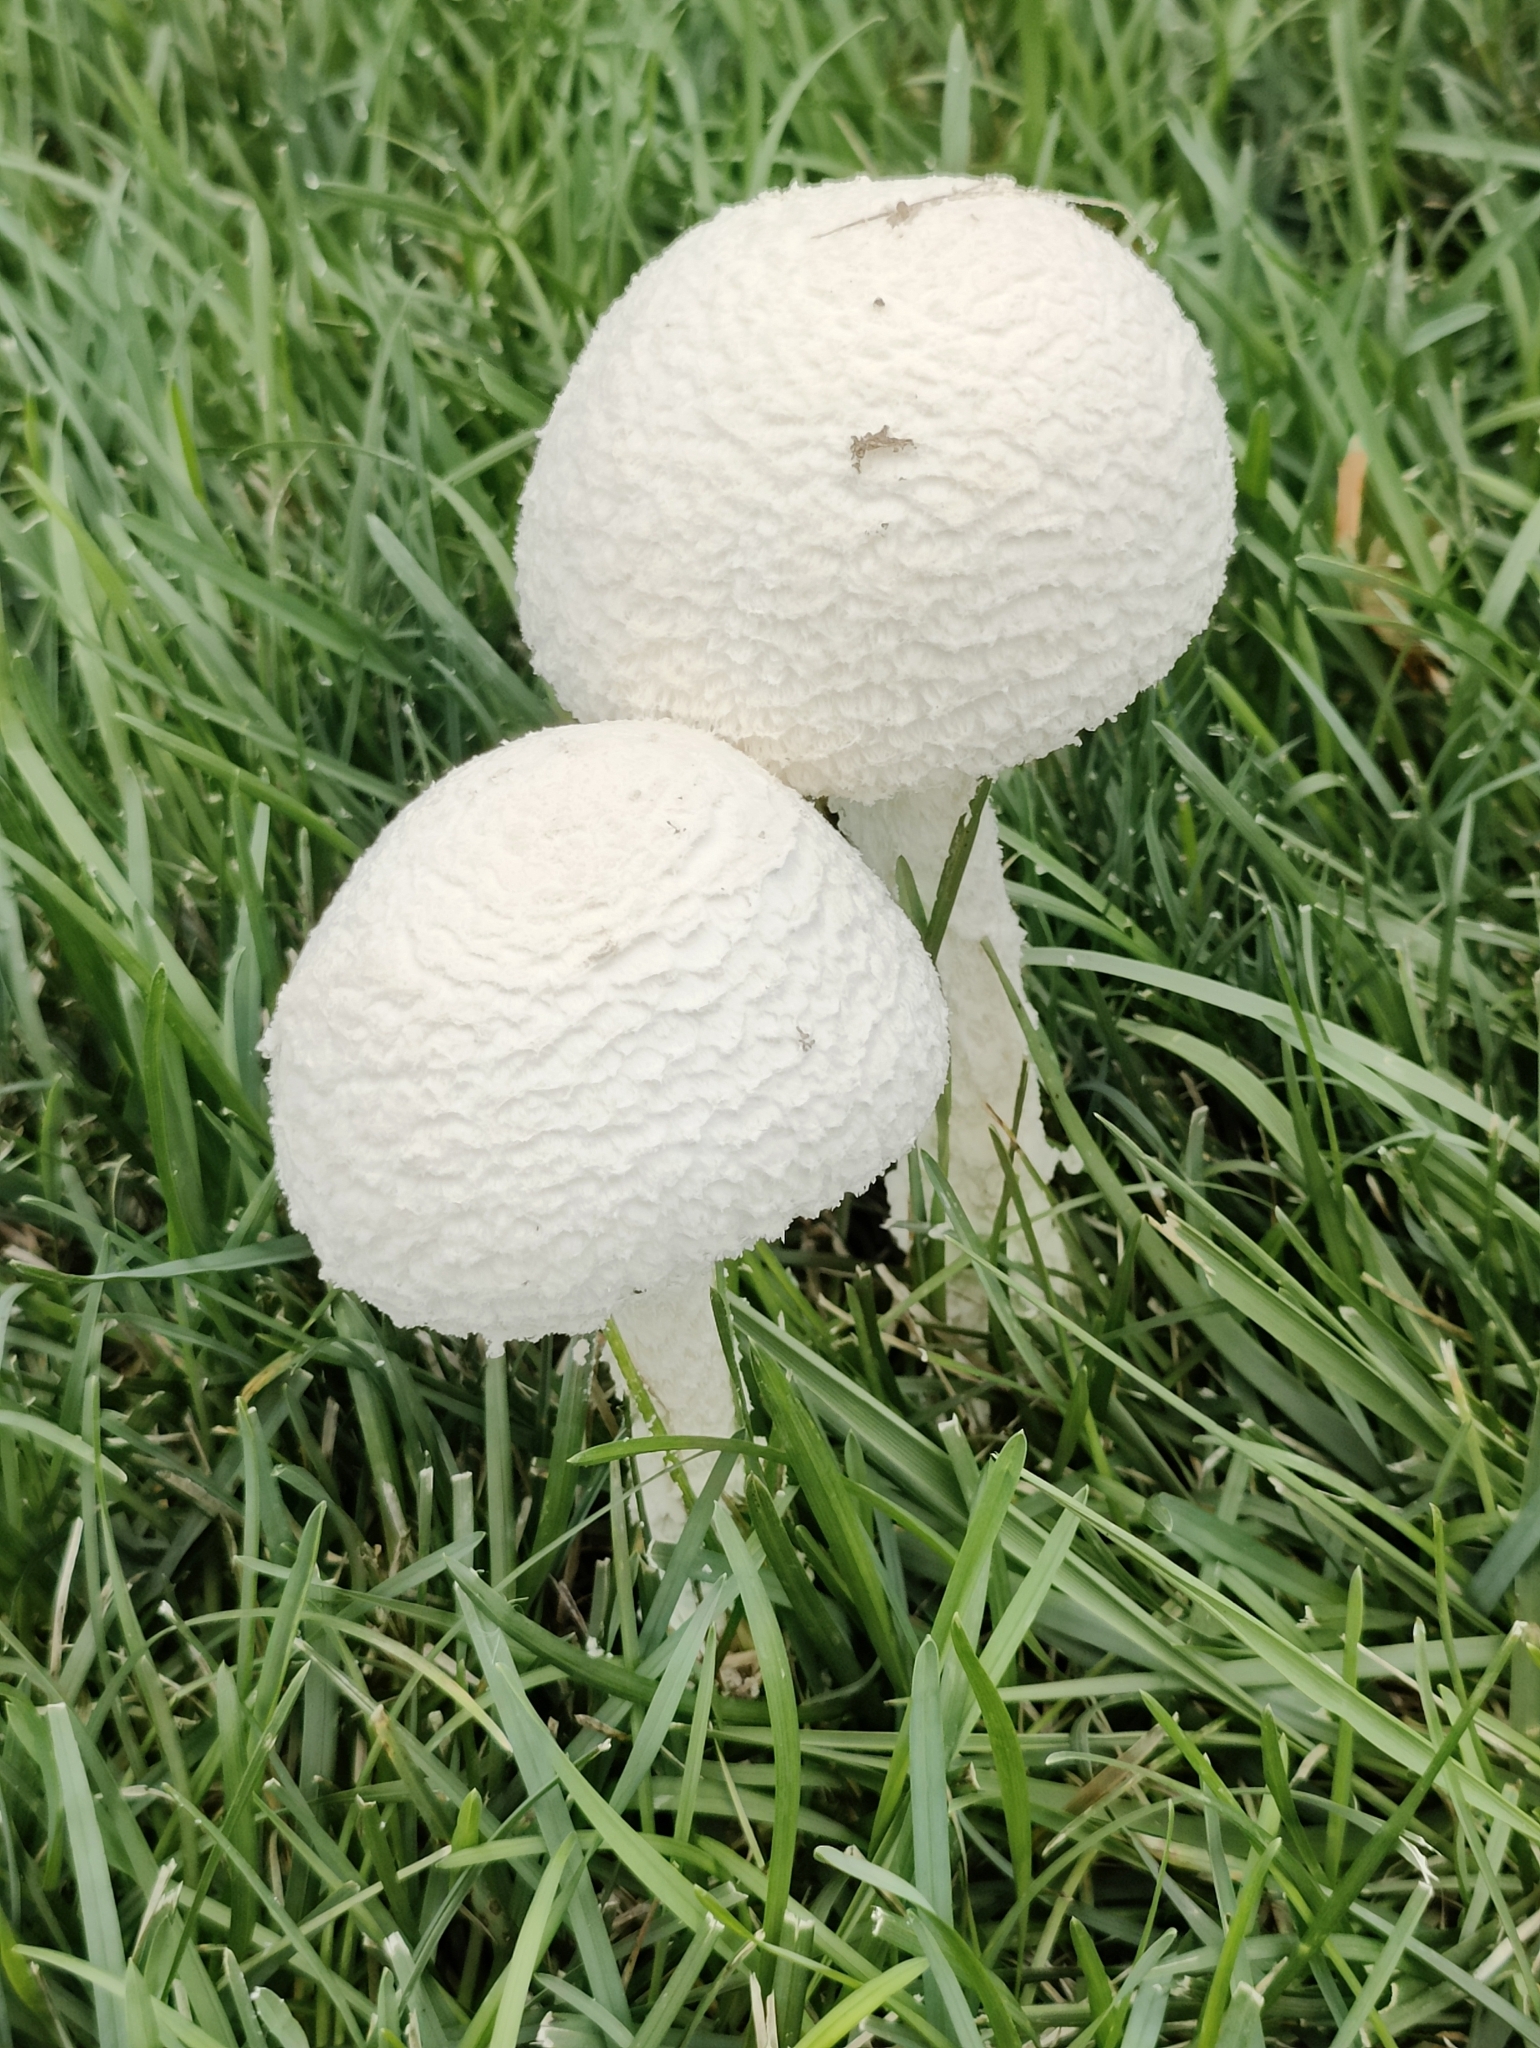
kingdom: Fungi
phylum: Basidiomycota
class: Agaricomycetes
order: Agaricales
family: Amanitaceae
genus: Amanita
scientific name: Amanita thiersii
